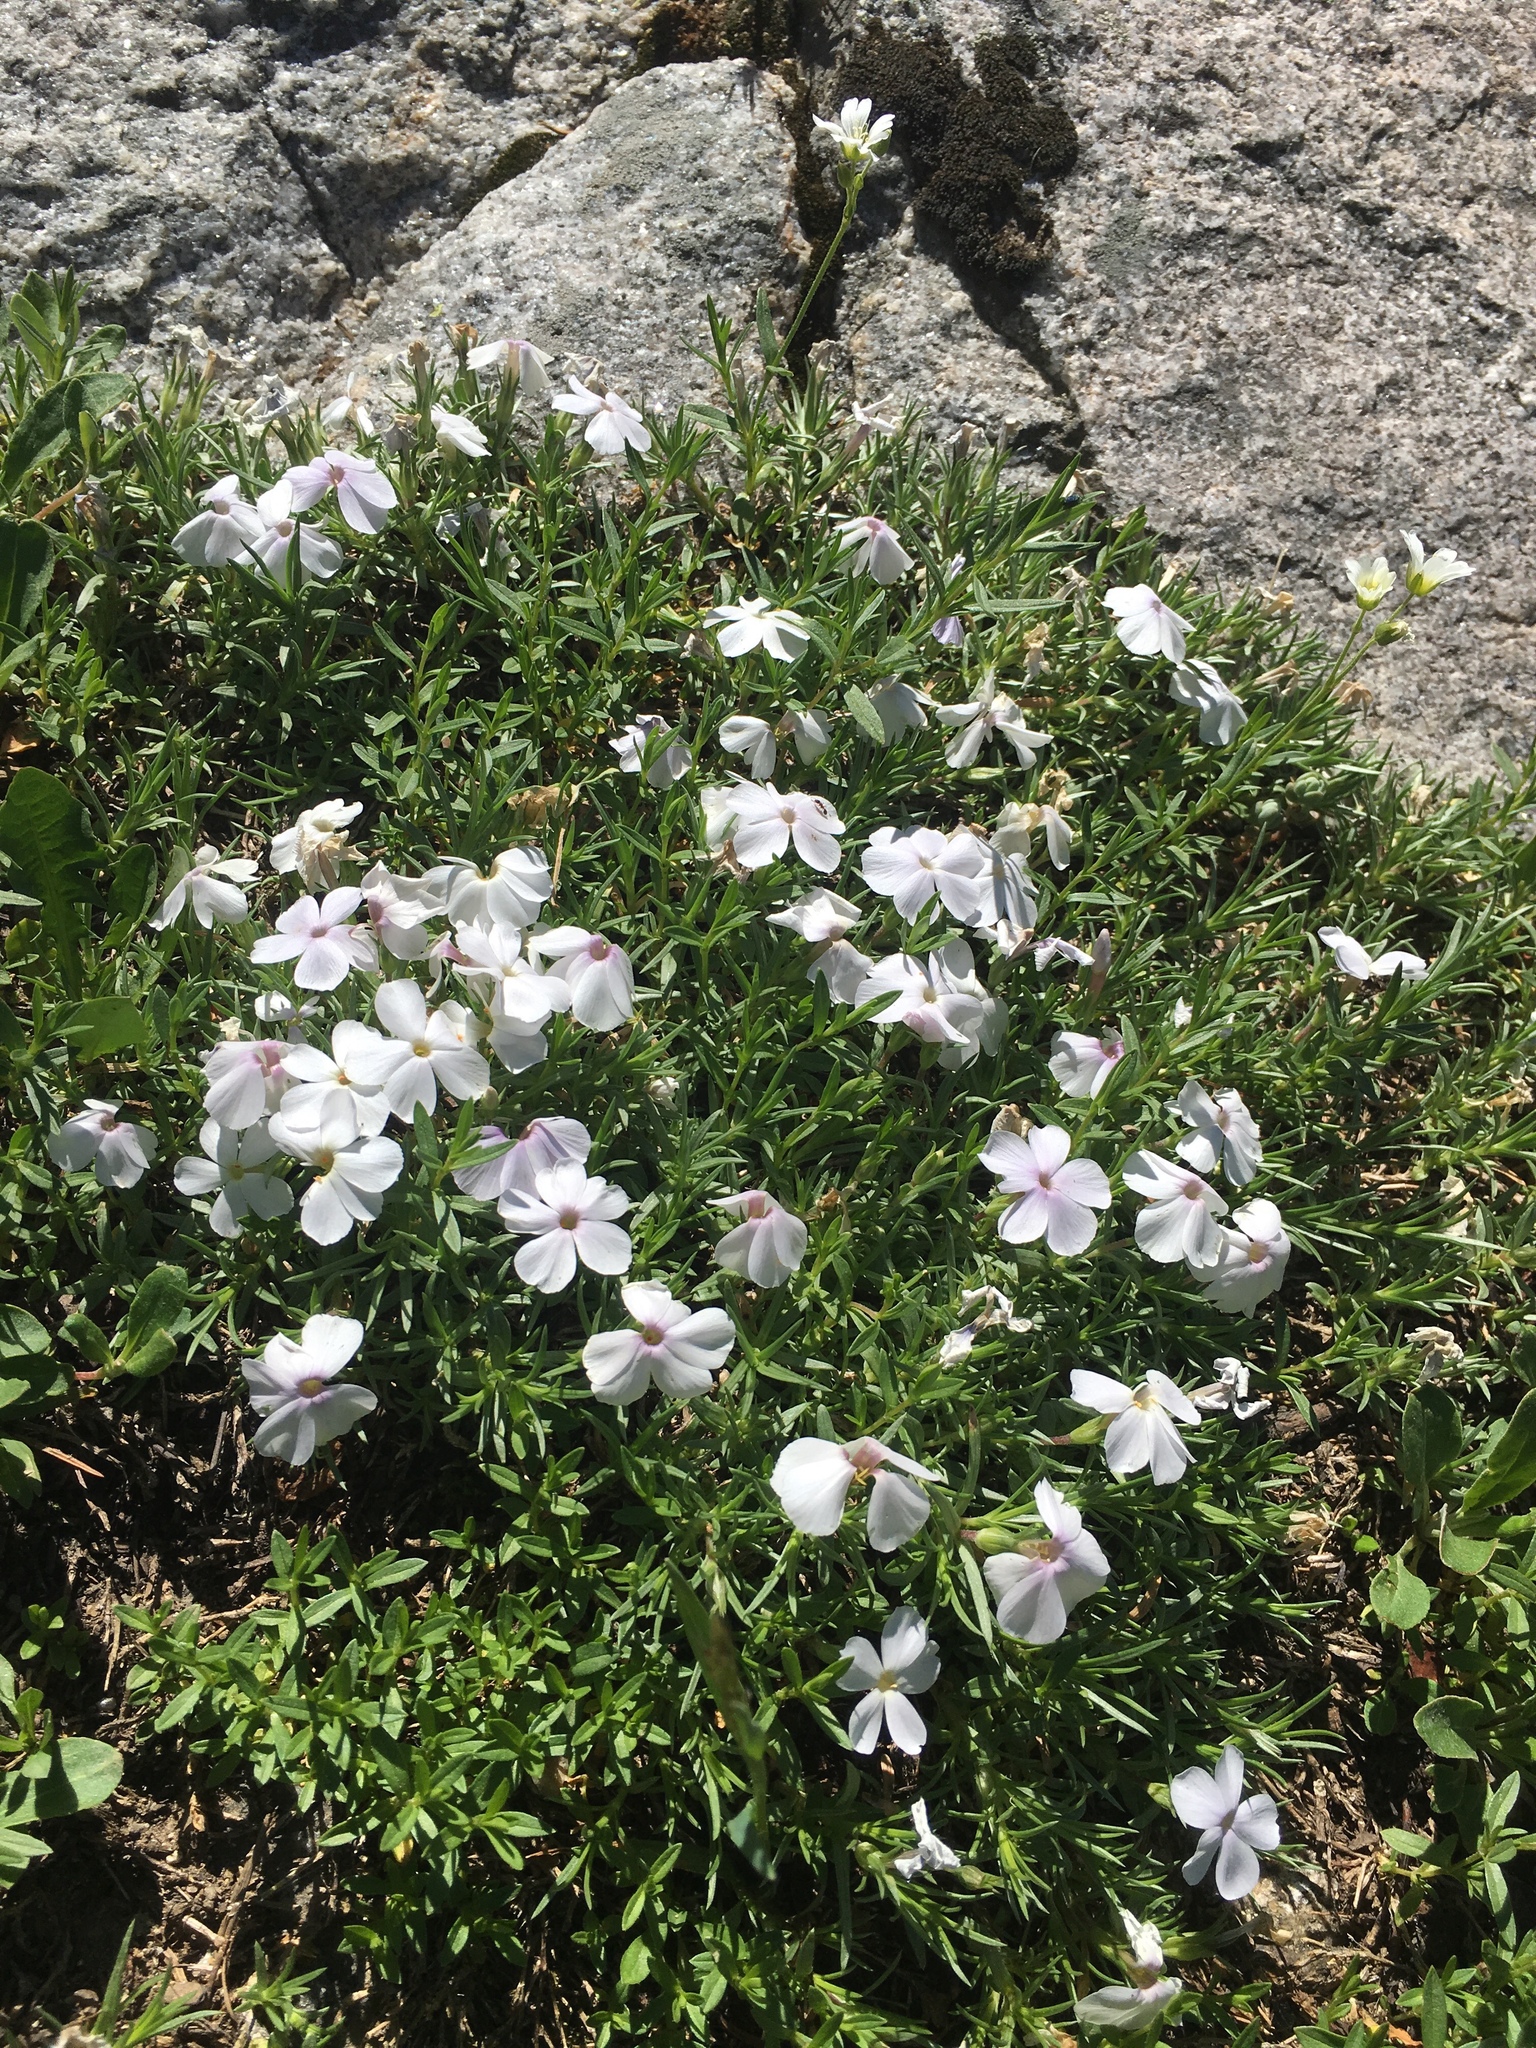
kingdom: Plantae
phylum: Tracheophyta
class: Magnoliopsida
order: Ericales
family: Polemoniaceae
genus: Phlox
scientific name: Phlox multiflora
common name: Rocky mountain phlox
